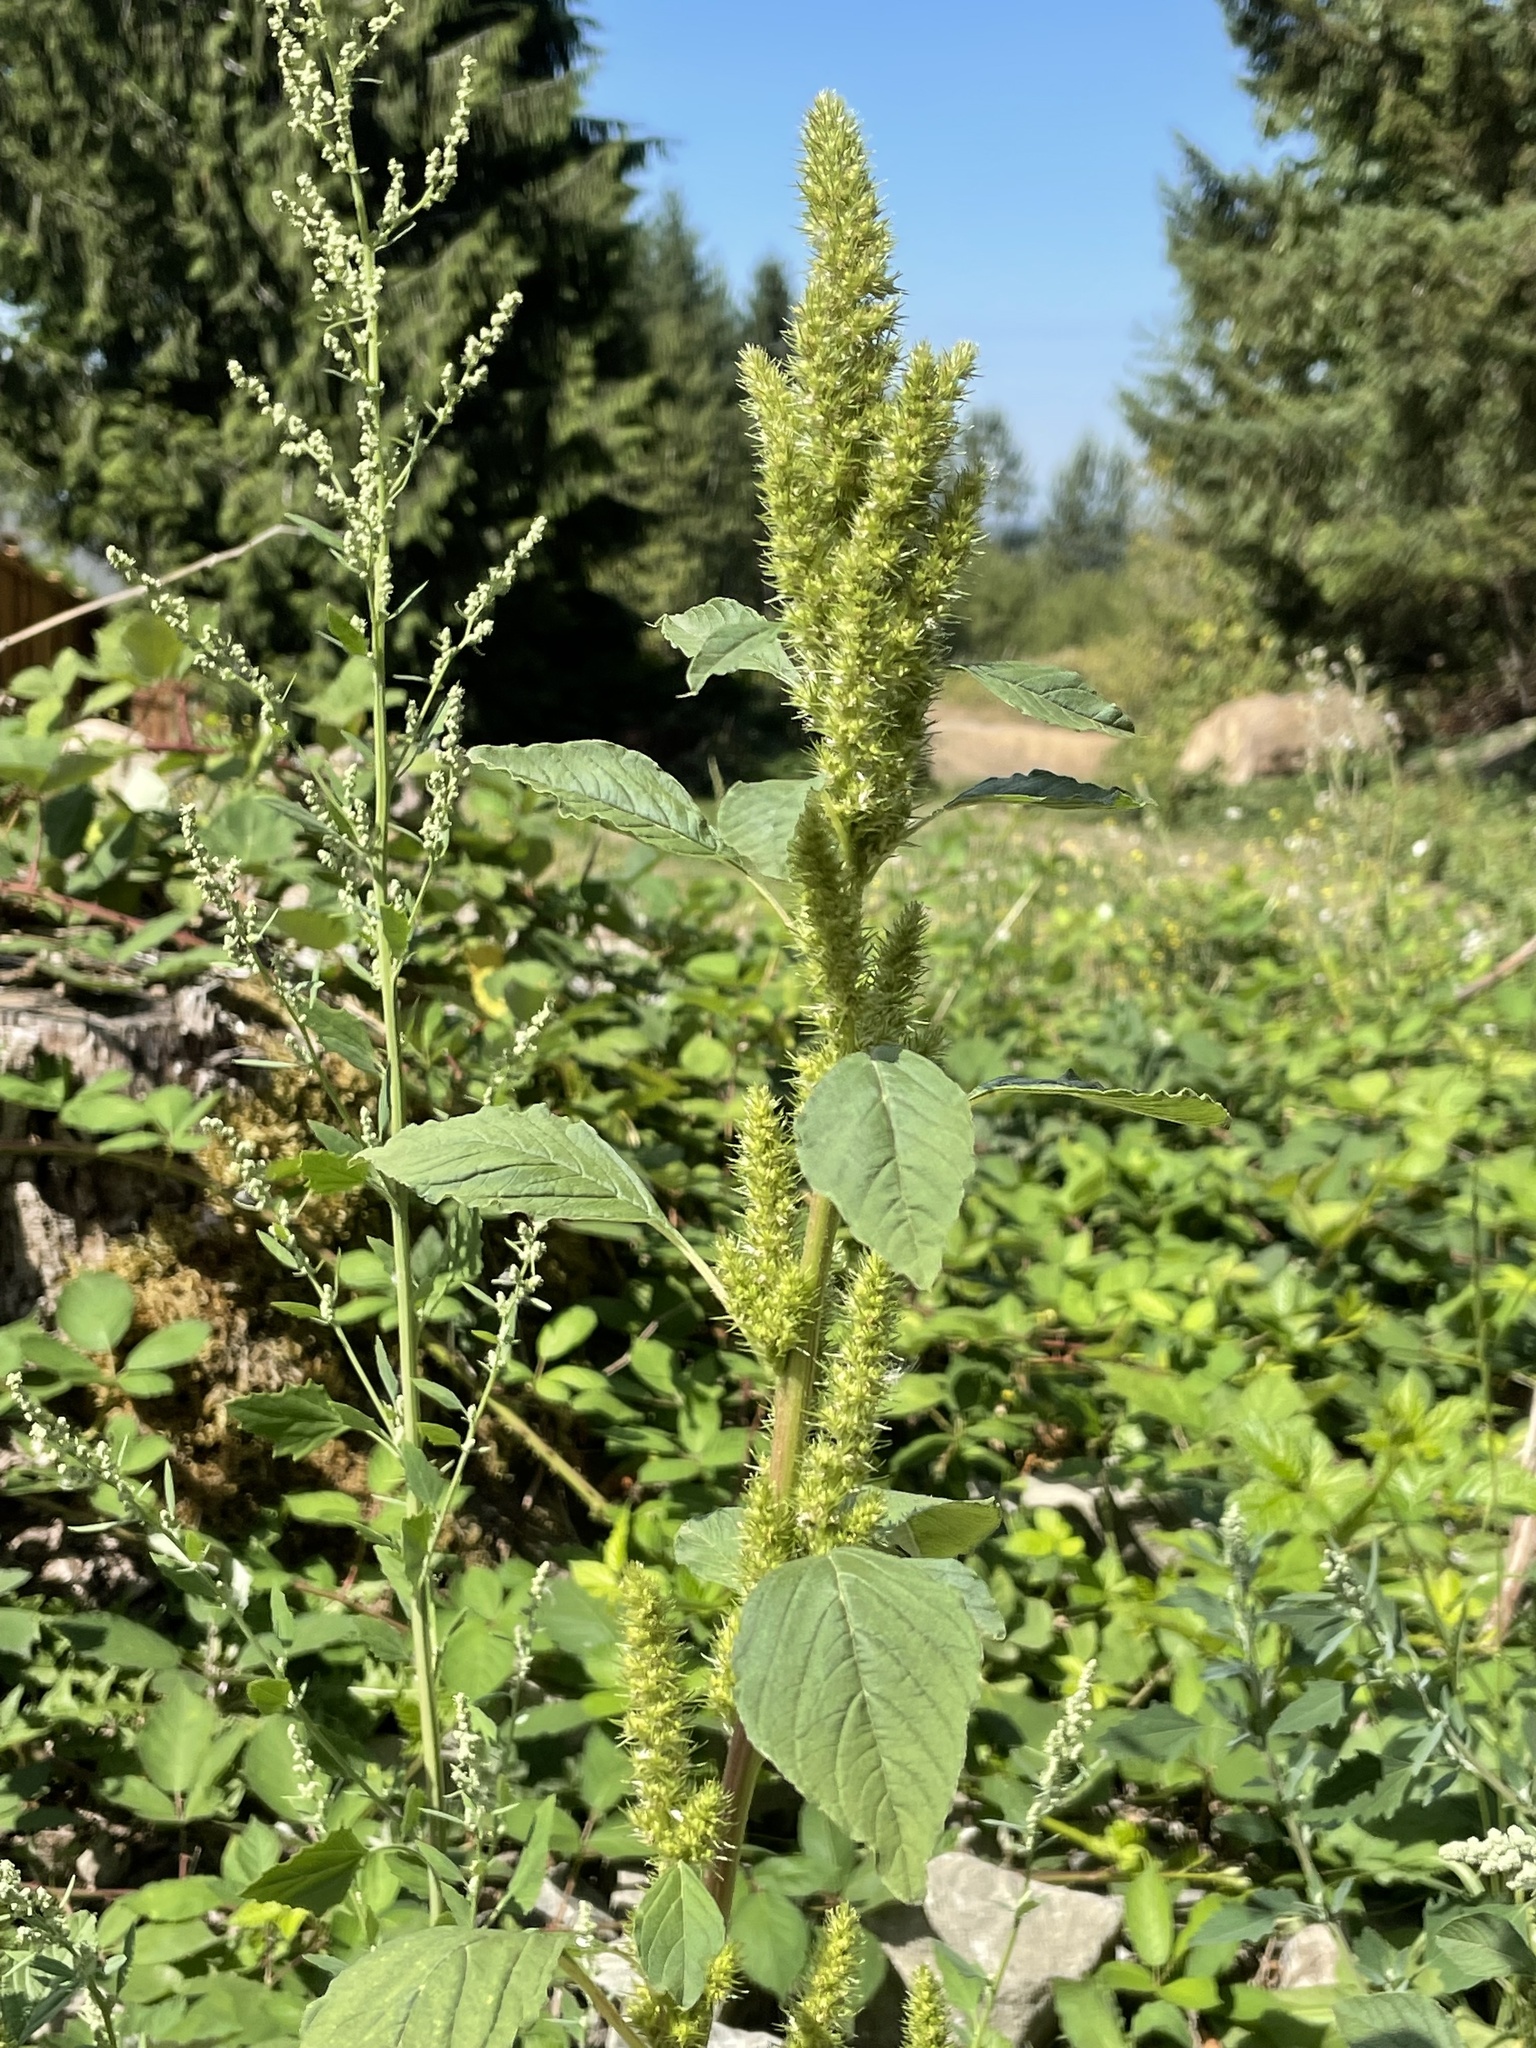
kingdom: Plantae
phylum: Tracheophyta
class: Magnoliopsida
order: Caryophyllales
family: Amaranthaceae
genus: Amaranthus
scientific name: Amaranthus powellii
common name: Powell's amaranth
